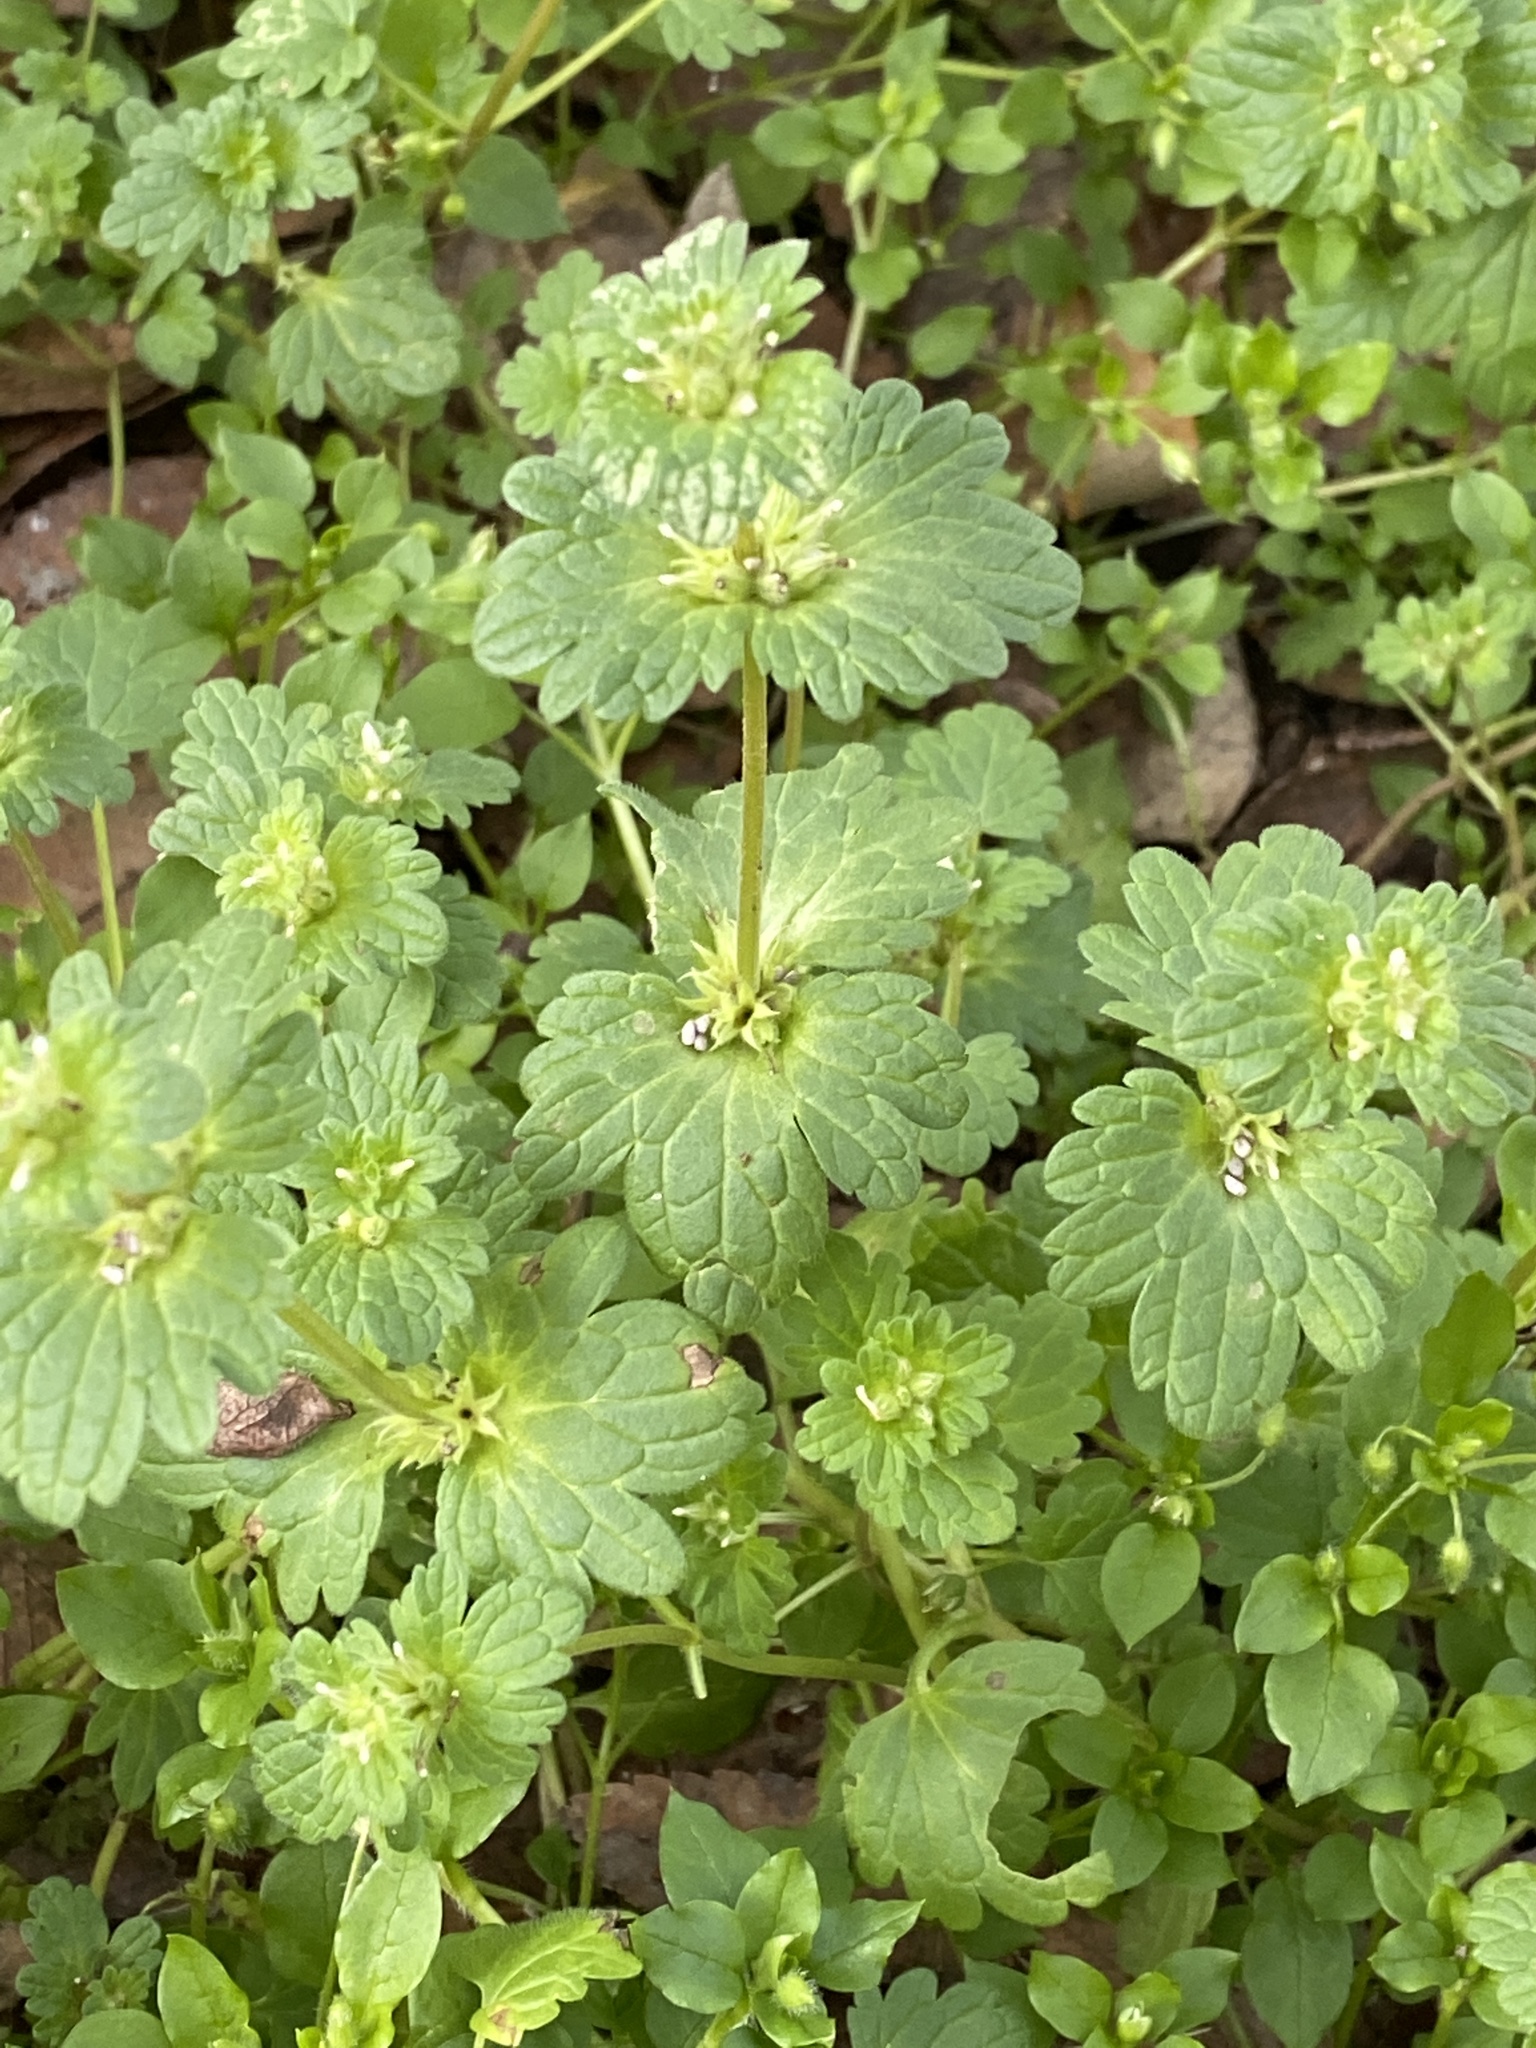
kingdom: Plantae
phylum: Tracheophyta
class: Magnoliopsida
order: Lamiales
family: Lamiaceae
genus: Lamium
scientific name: Lamium amplexicaule
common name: Henbit dead-nettle
